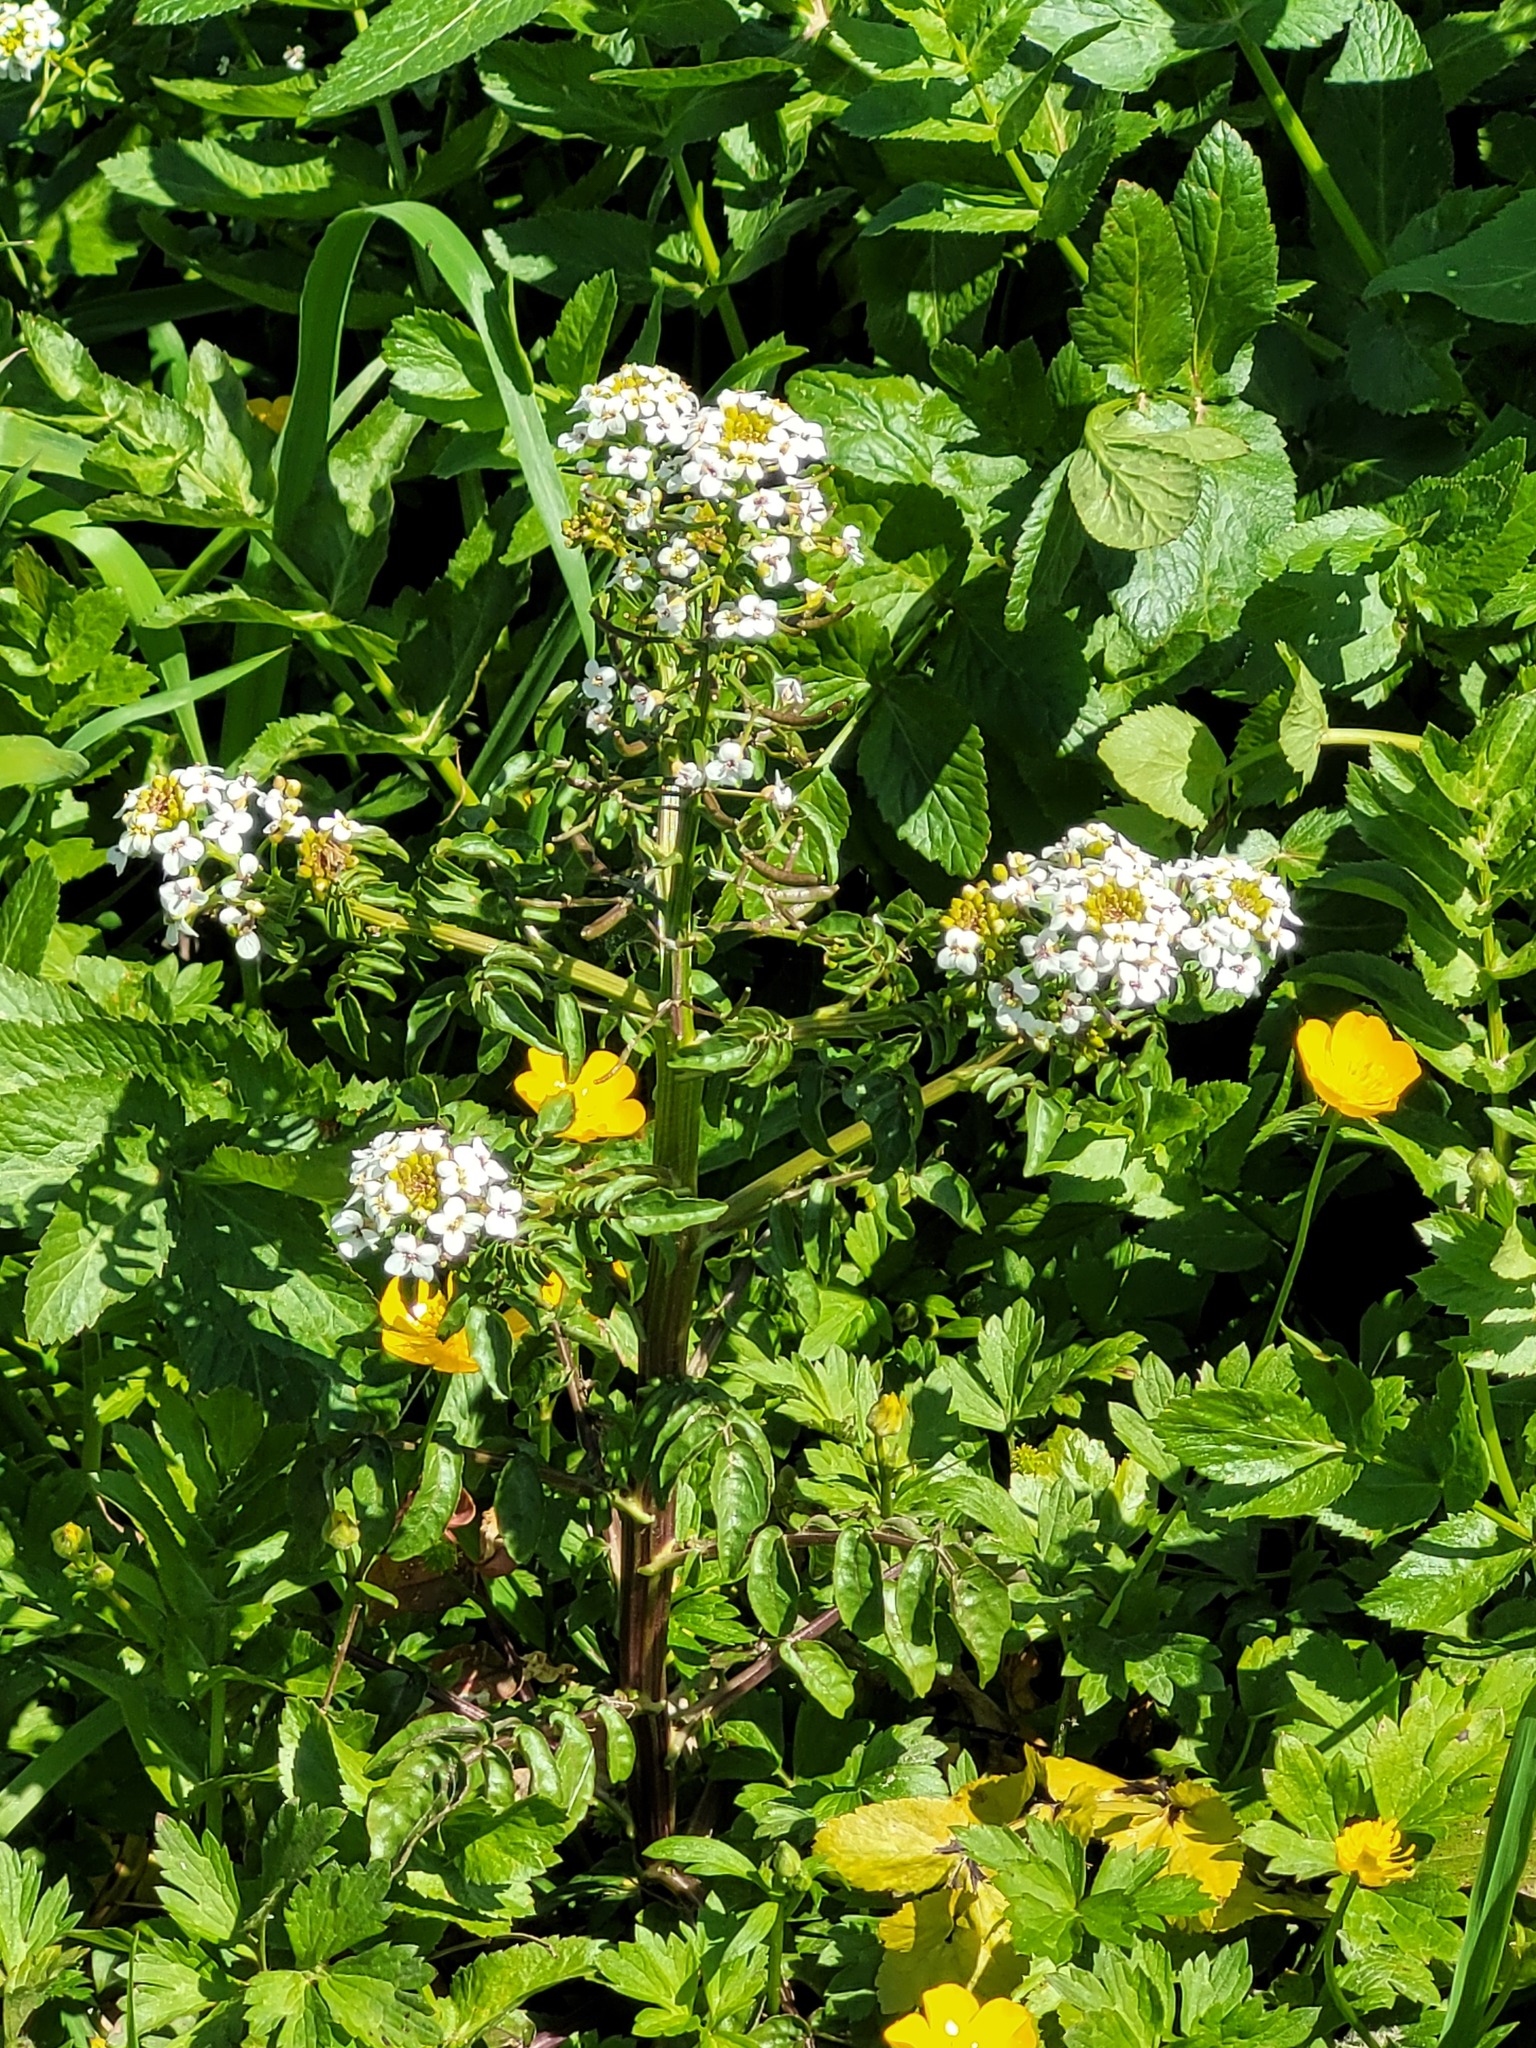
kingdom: Plantae
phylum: Tracheophyta
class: Magnoliopsida
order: Brassicales
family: Brassicaceae
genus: Nasturtium
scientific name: Nasturtium officinale
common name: Watercress
